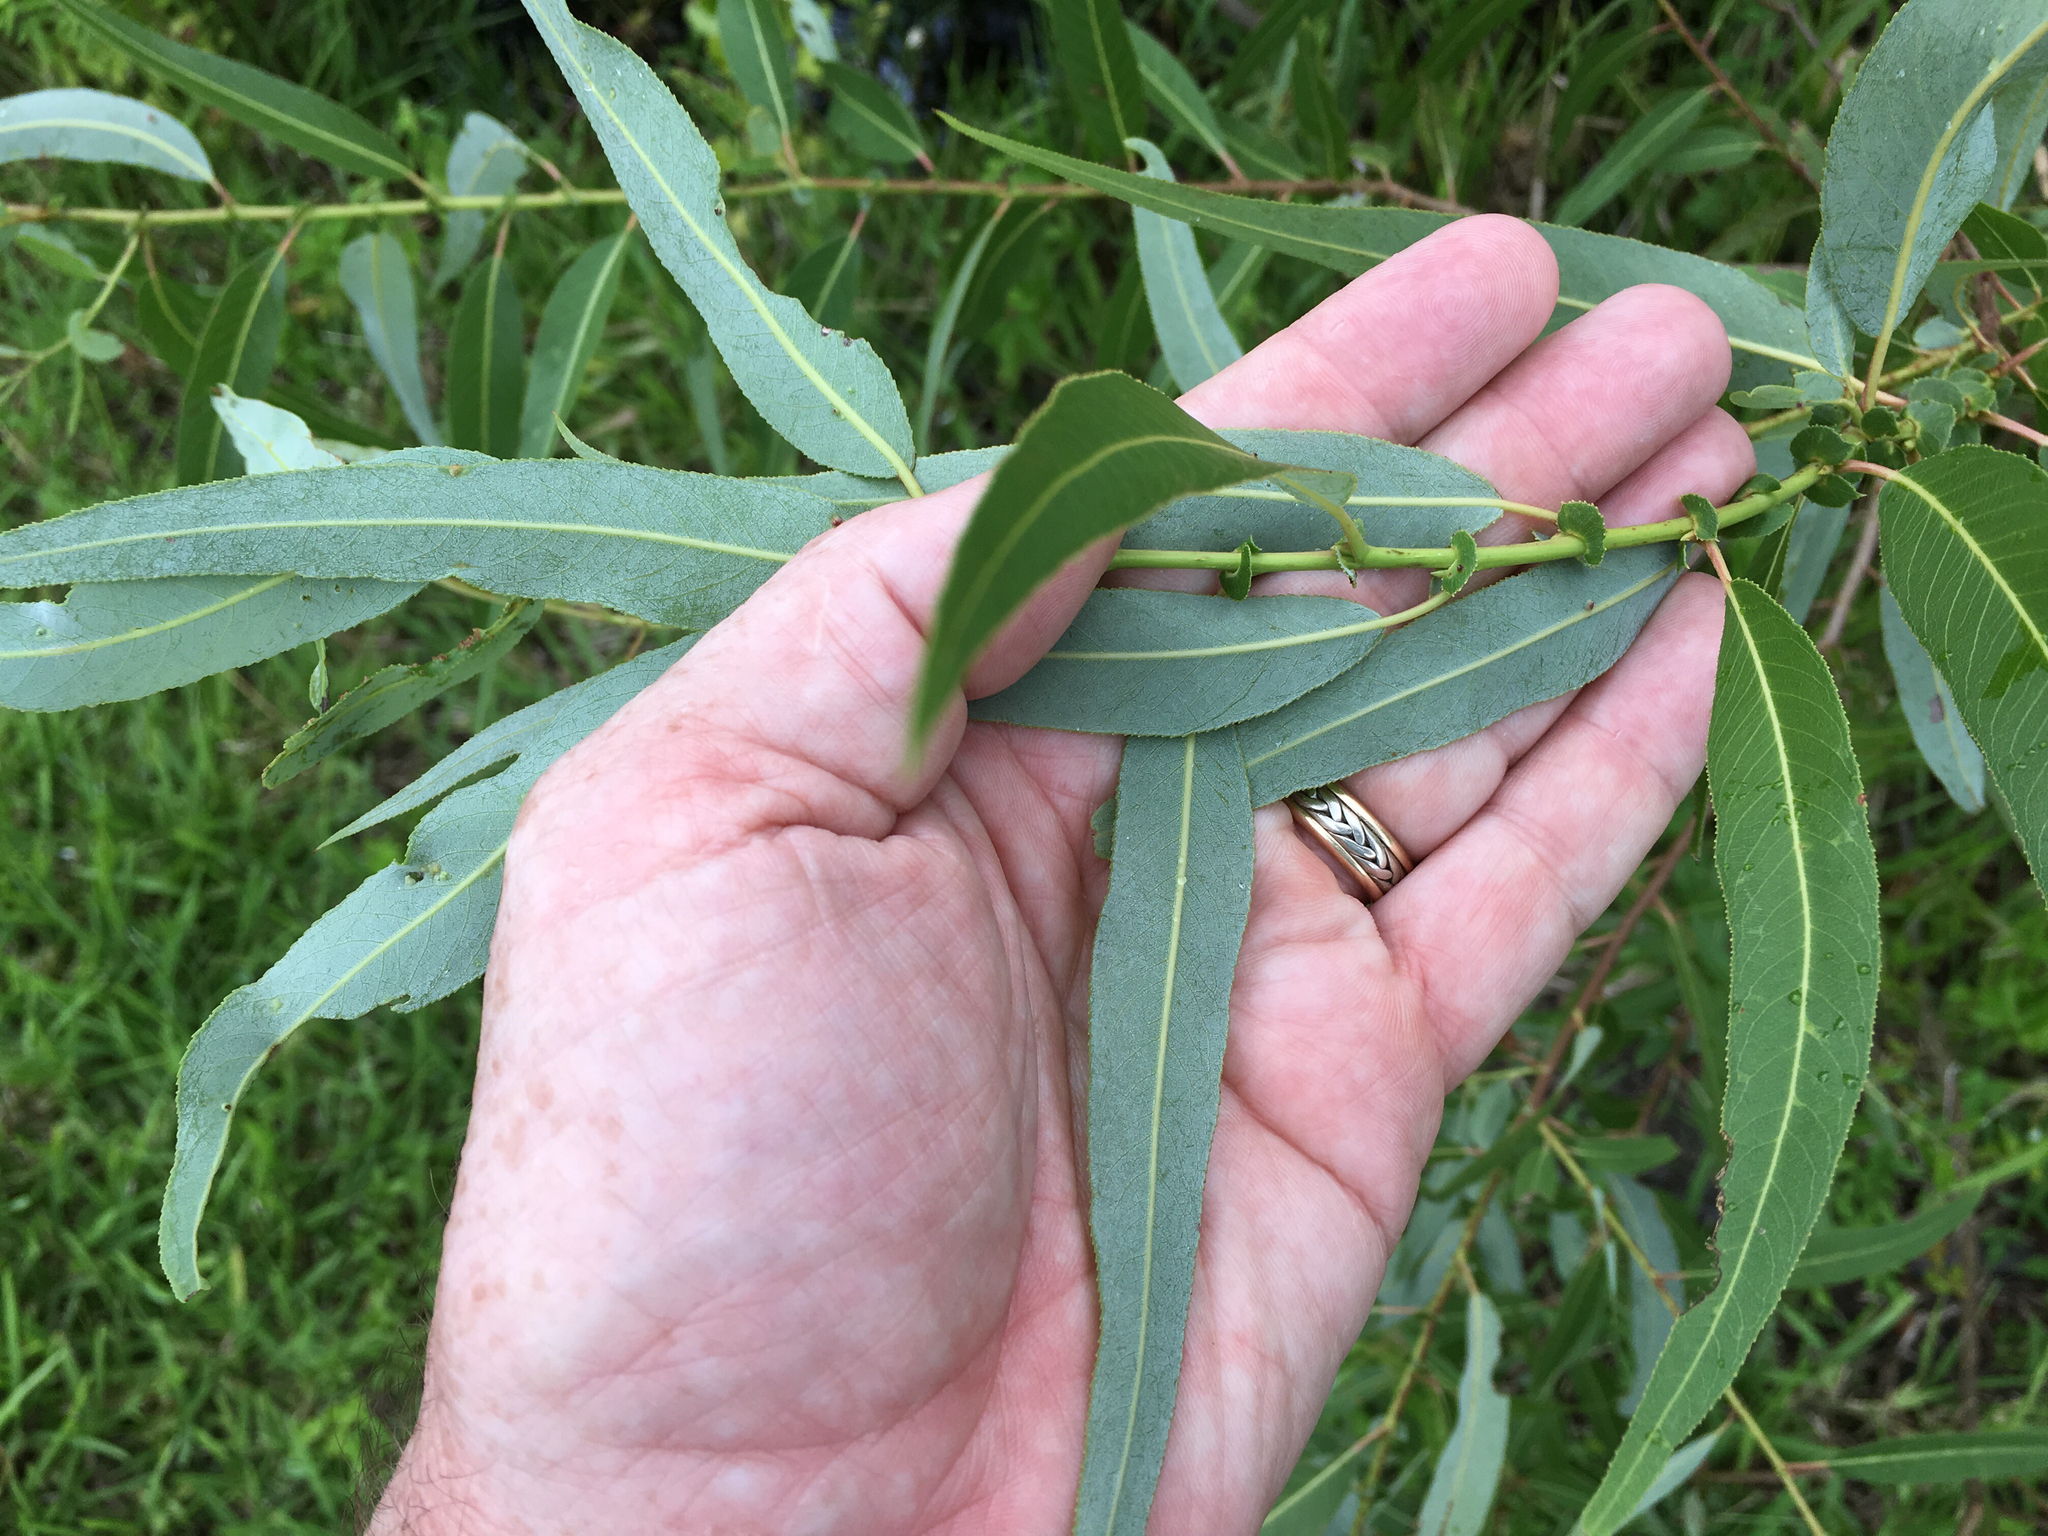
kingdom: Plantae
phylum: Tracheophyta
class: Magnoliopsida
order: Malpighiales
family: Salicaceae
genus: Salix
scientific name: Salix caroliniana
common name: Carolina willow
